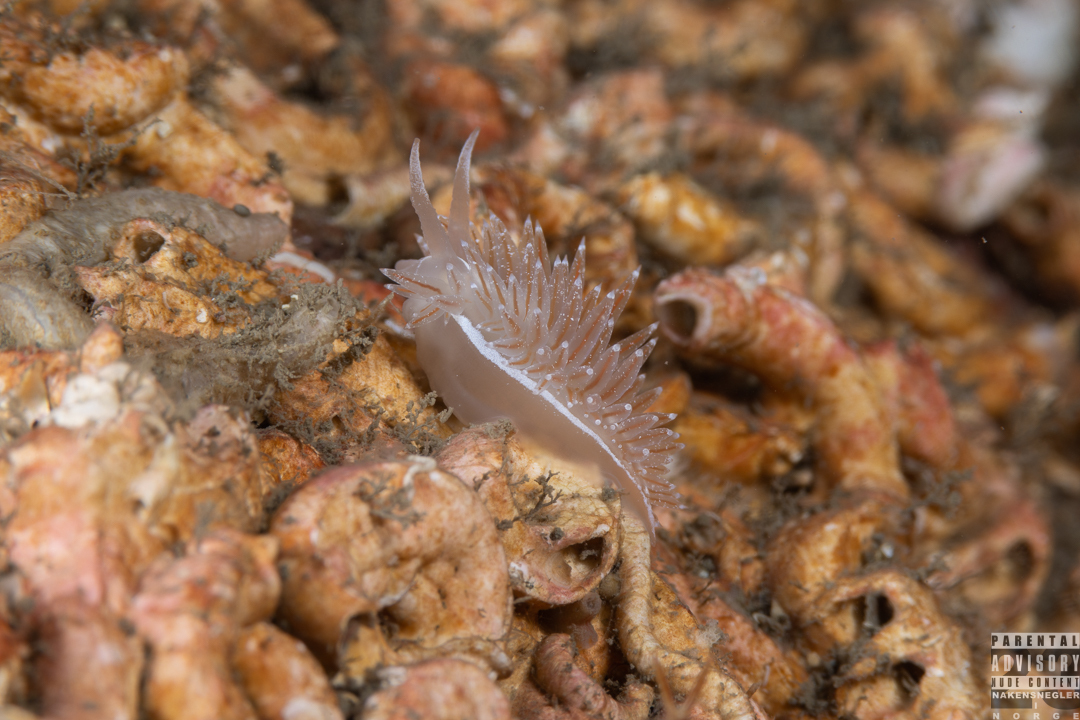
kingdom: Animalia
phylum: Mollusca
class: Gastropoda
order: Nudibranchia
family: Coryphellidae
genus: Coryphella
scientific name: Coryphella monicae
